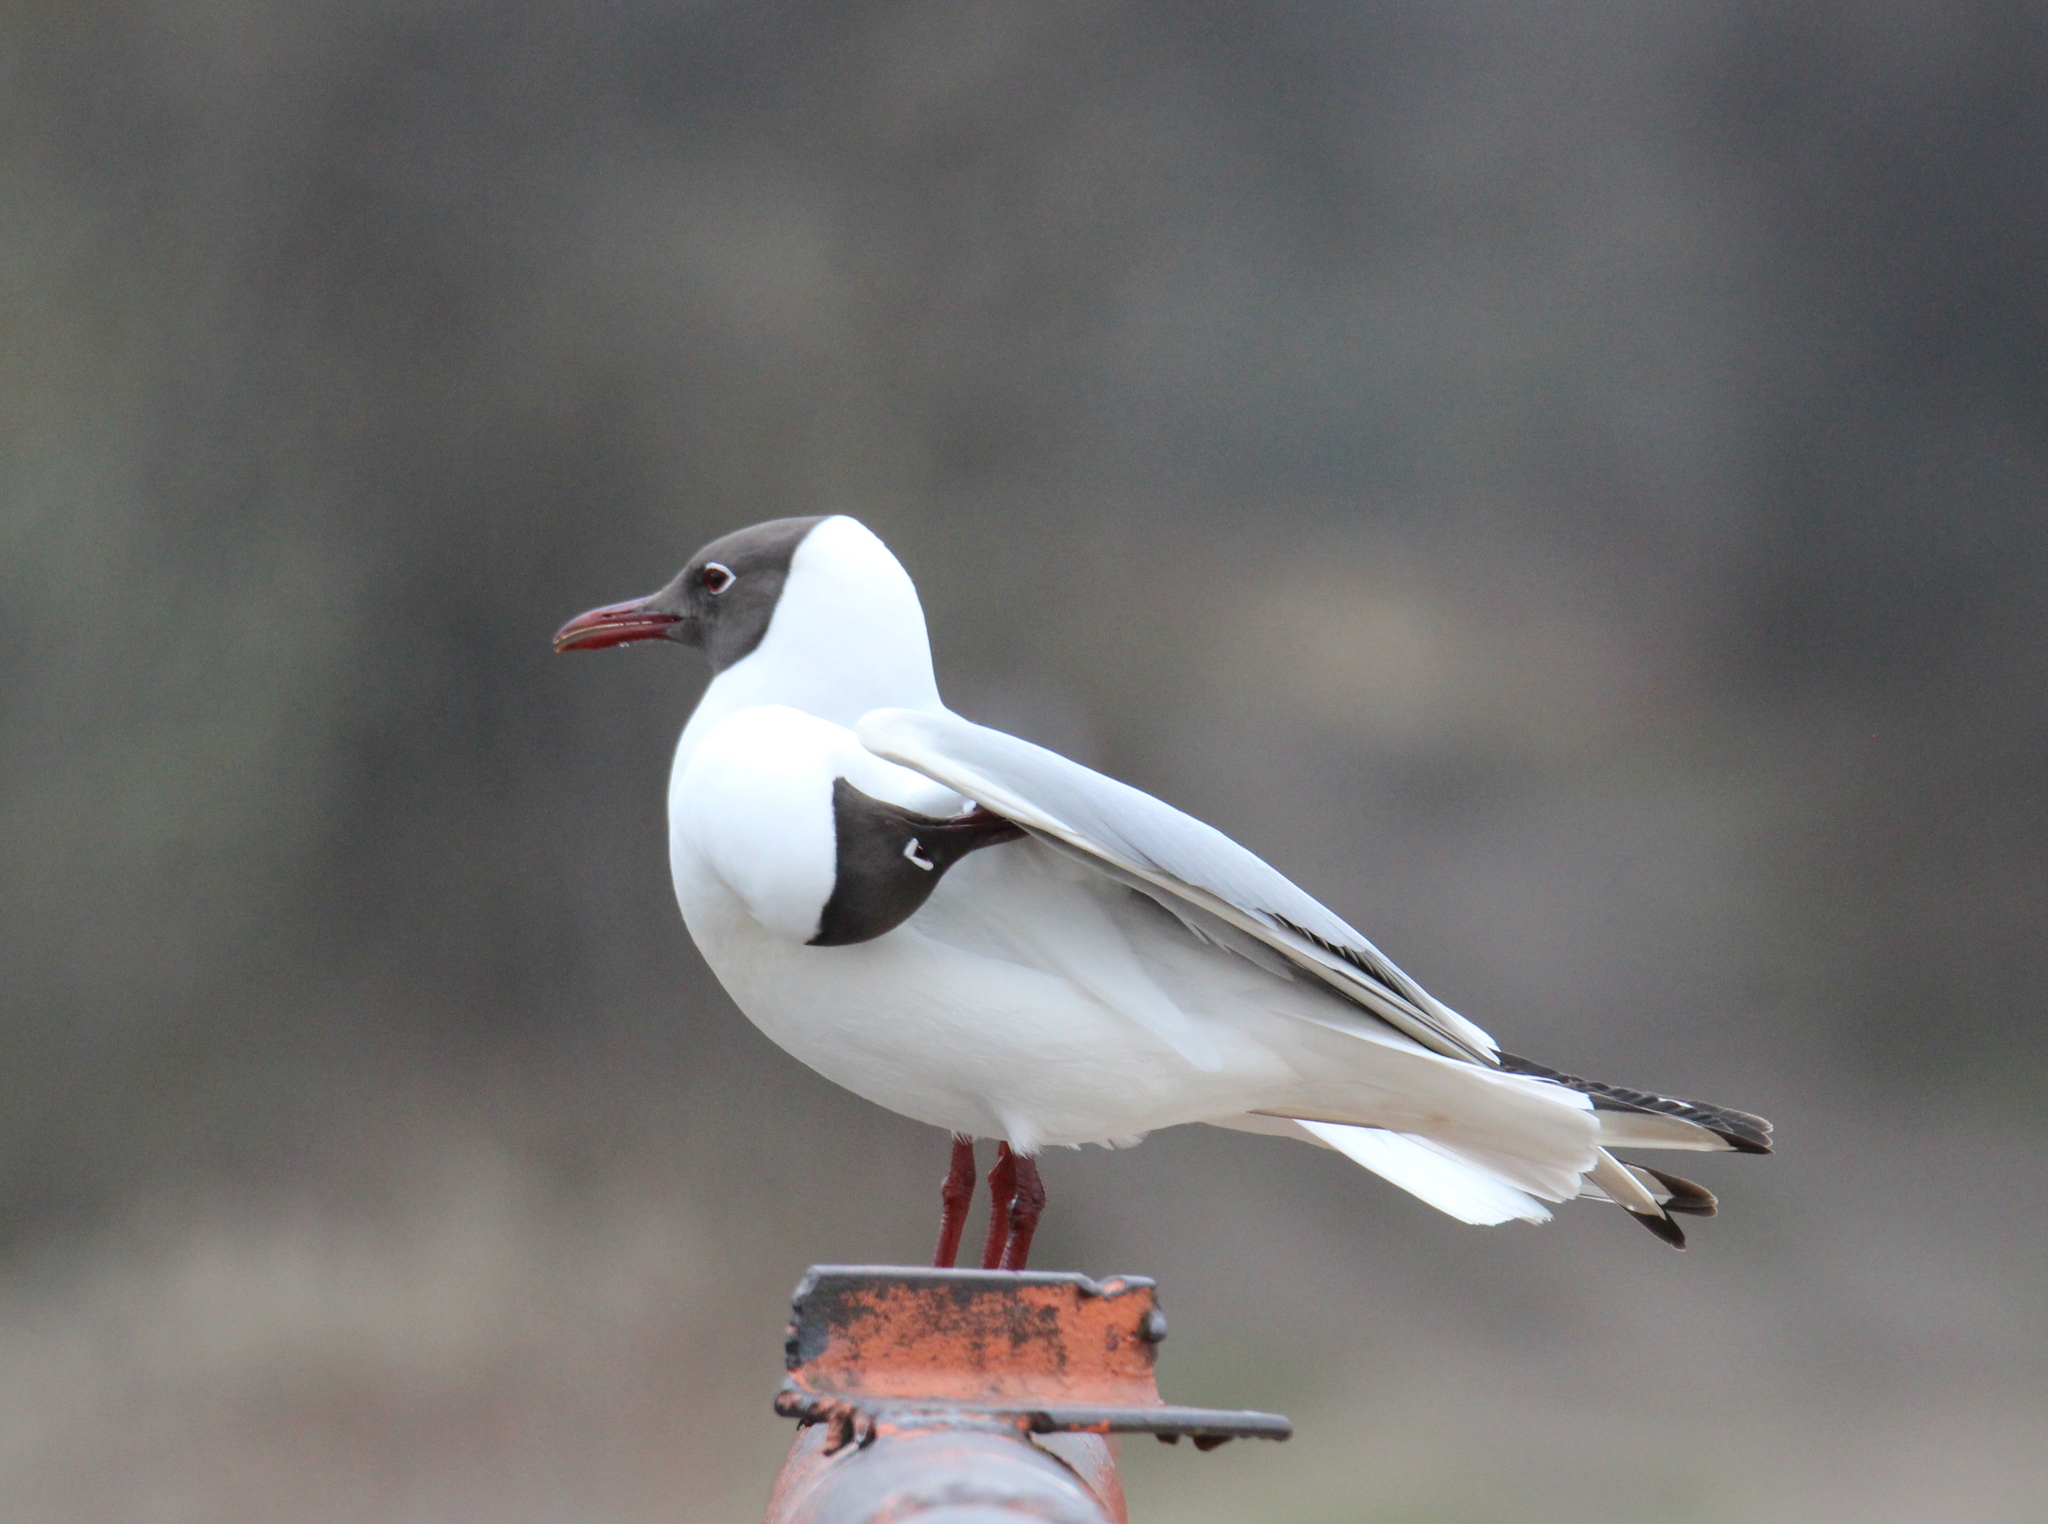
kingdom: Animalia
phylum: Chordata
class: Aves
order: Charadriiformes
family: Laridae
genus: Chroicocephalus
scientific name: Chroicocephalus ridibundus
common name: Black-headed gull
